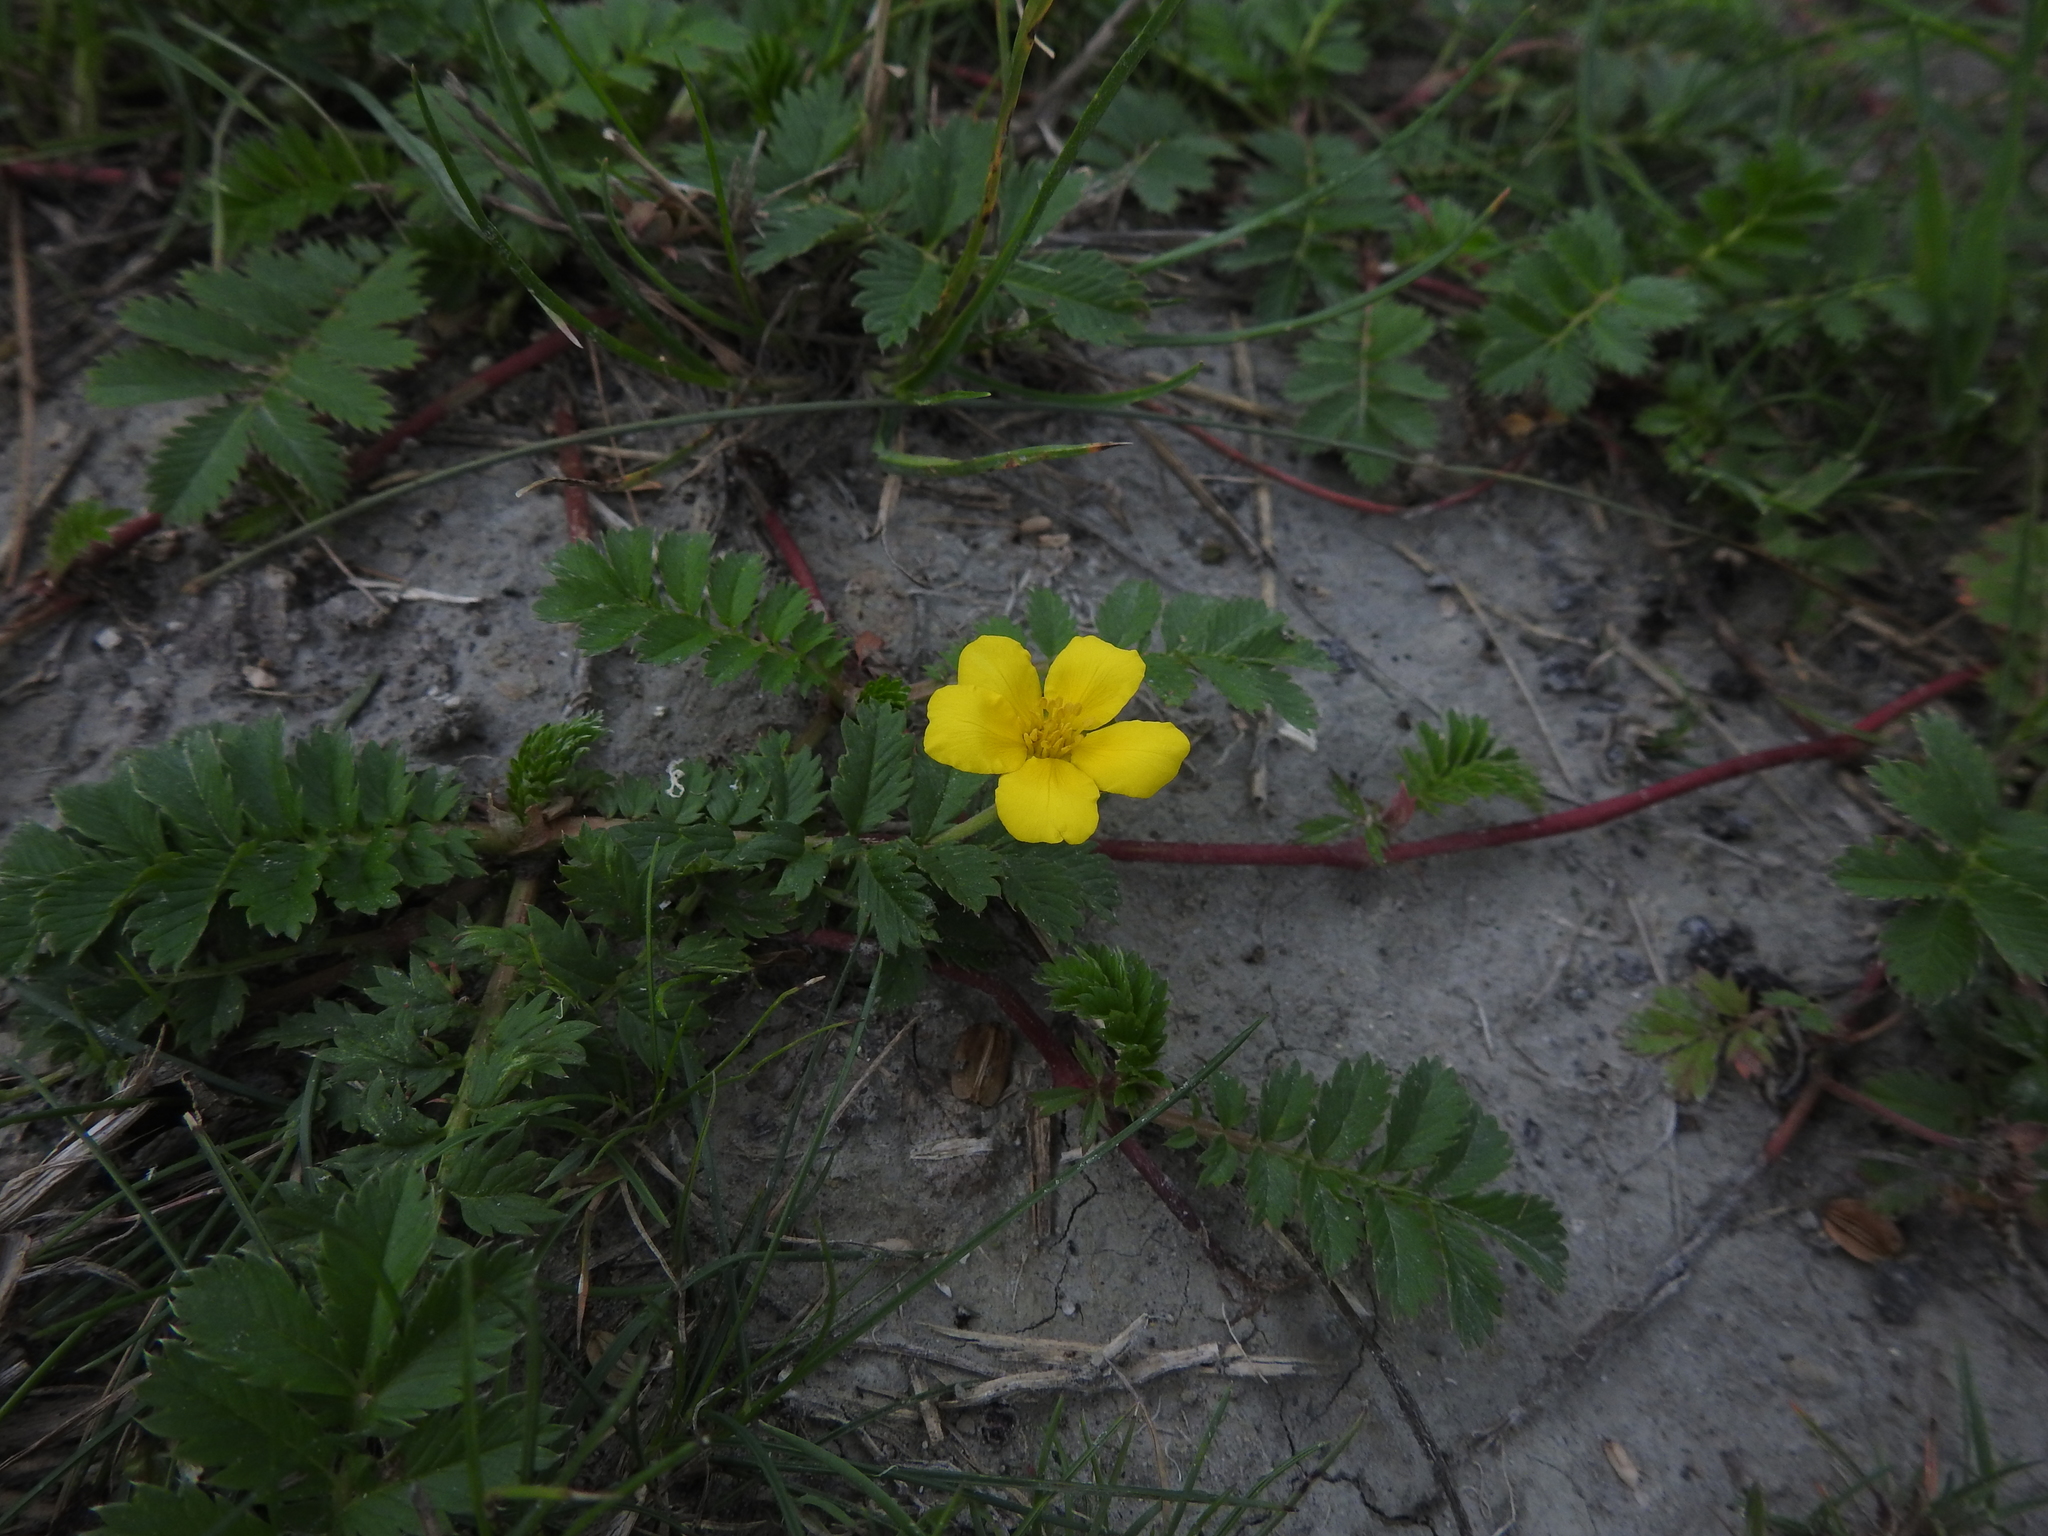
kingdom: Plantae
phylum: Tracheophyta
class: Magnoliopsida
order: Rosales
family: Rosaceae
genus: Argentina
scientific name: Argentina anserina
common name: Common silverweed
